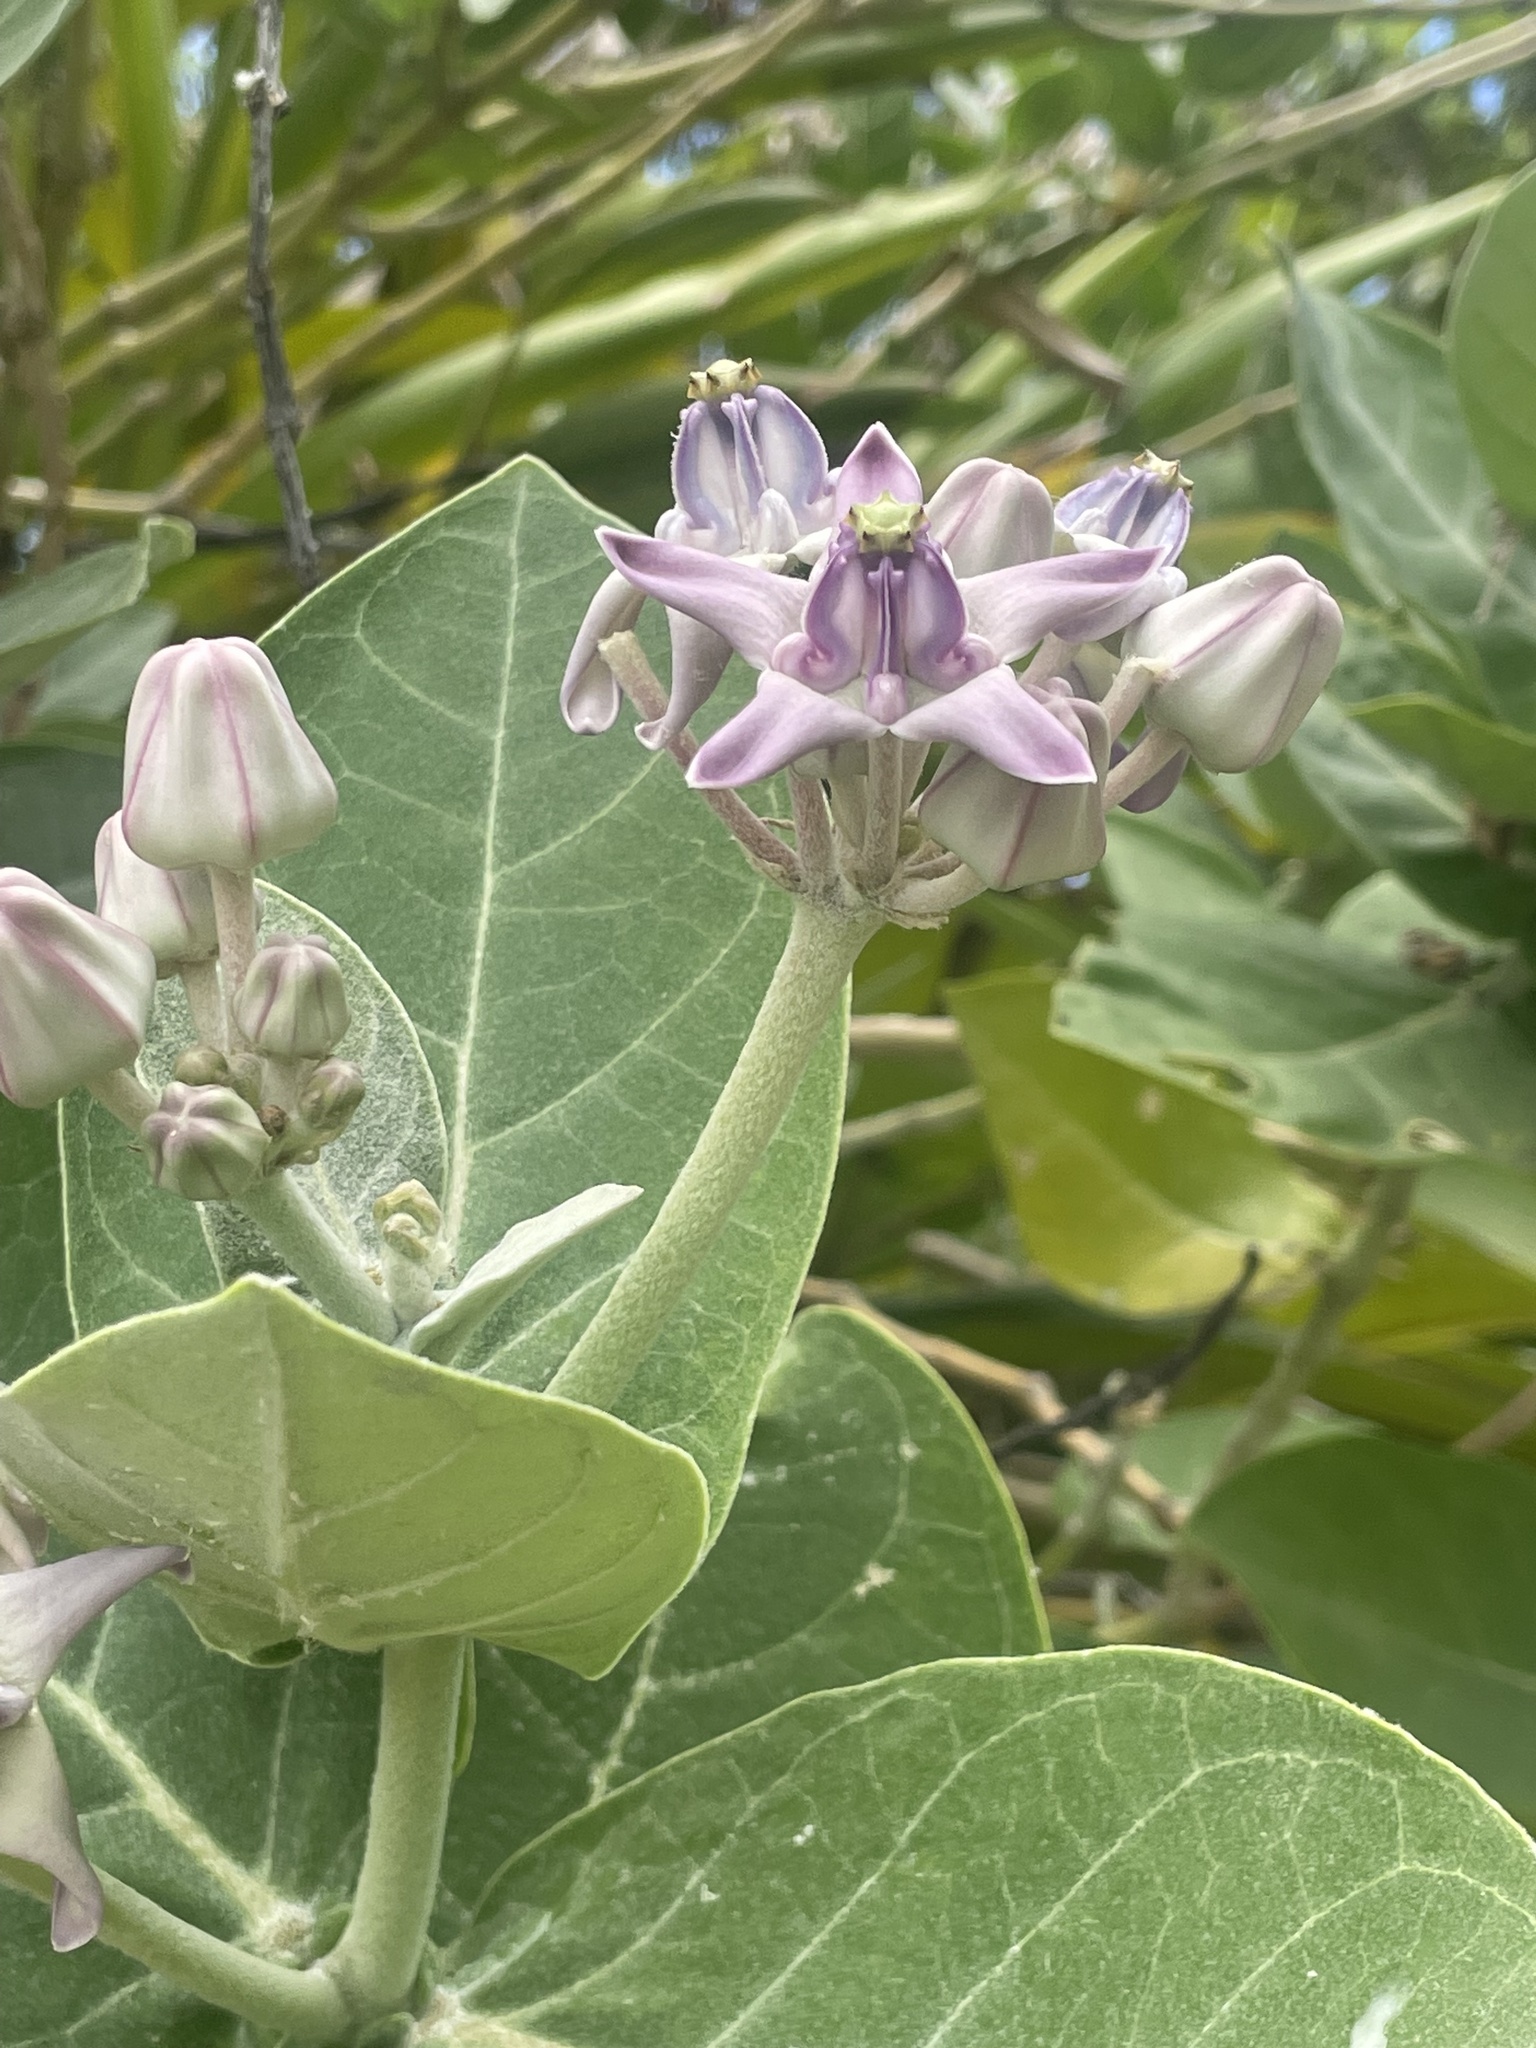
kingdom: Plantae
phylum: Tracheophyta
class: Magnoliopsida
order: Gentianales
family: Apocynaceae
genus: Calotropis
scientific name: Calotropis gigantea
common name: Crown flower
